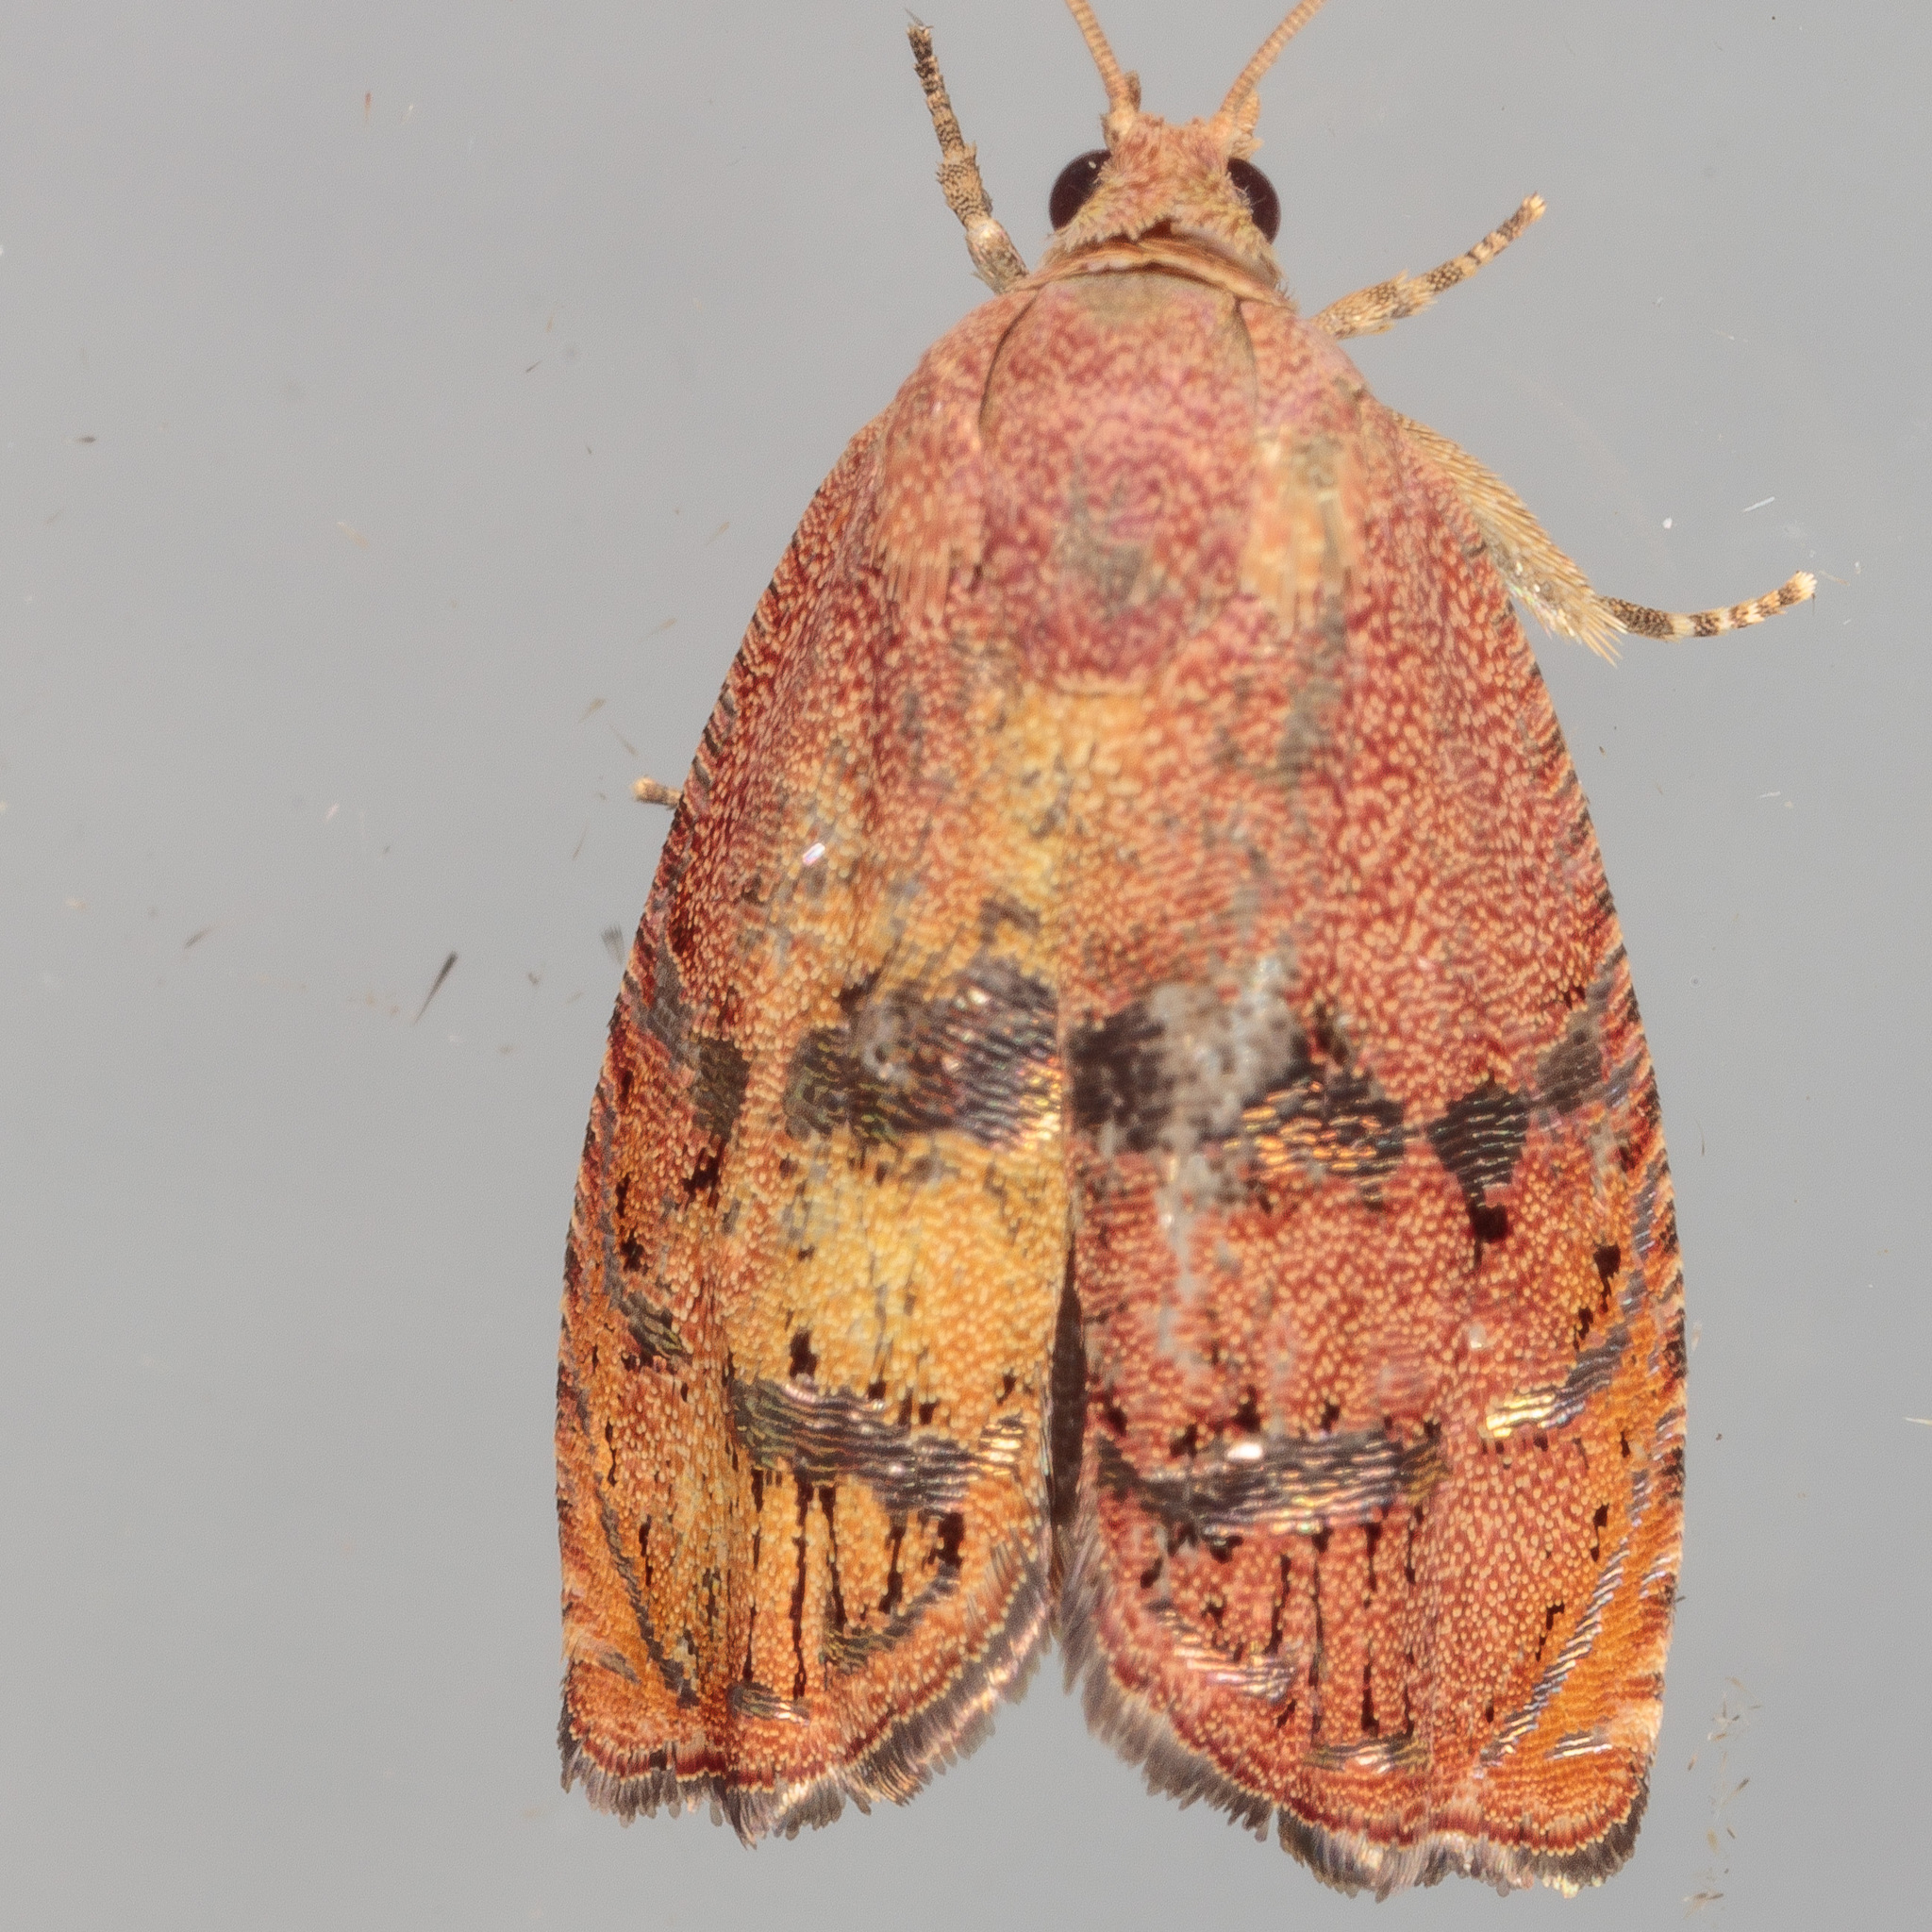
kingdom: Animalia
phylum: Arthropoda
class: Insecta
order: Lepidoptera
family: Tortricidae
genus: Cydia
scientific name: Cydia latiferreana
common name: Filbertworm moth
